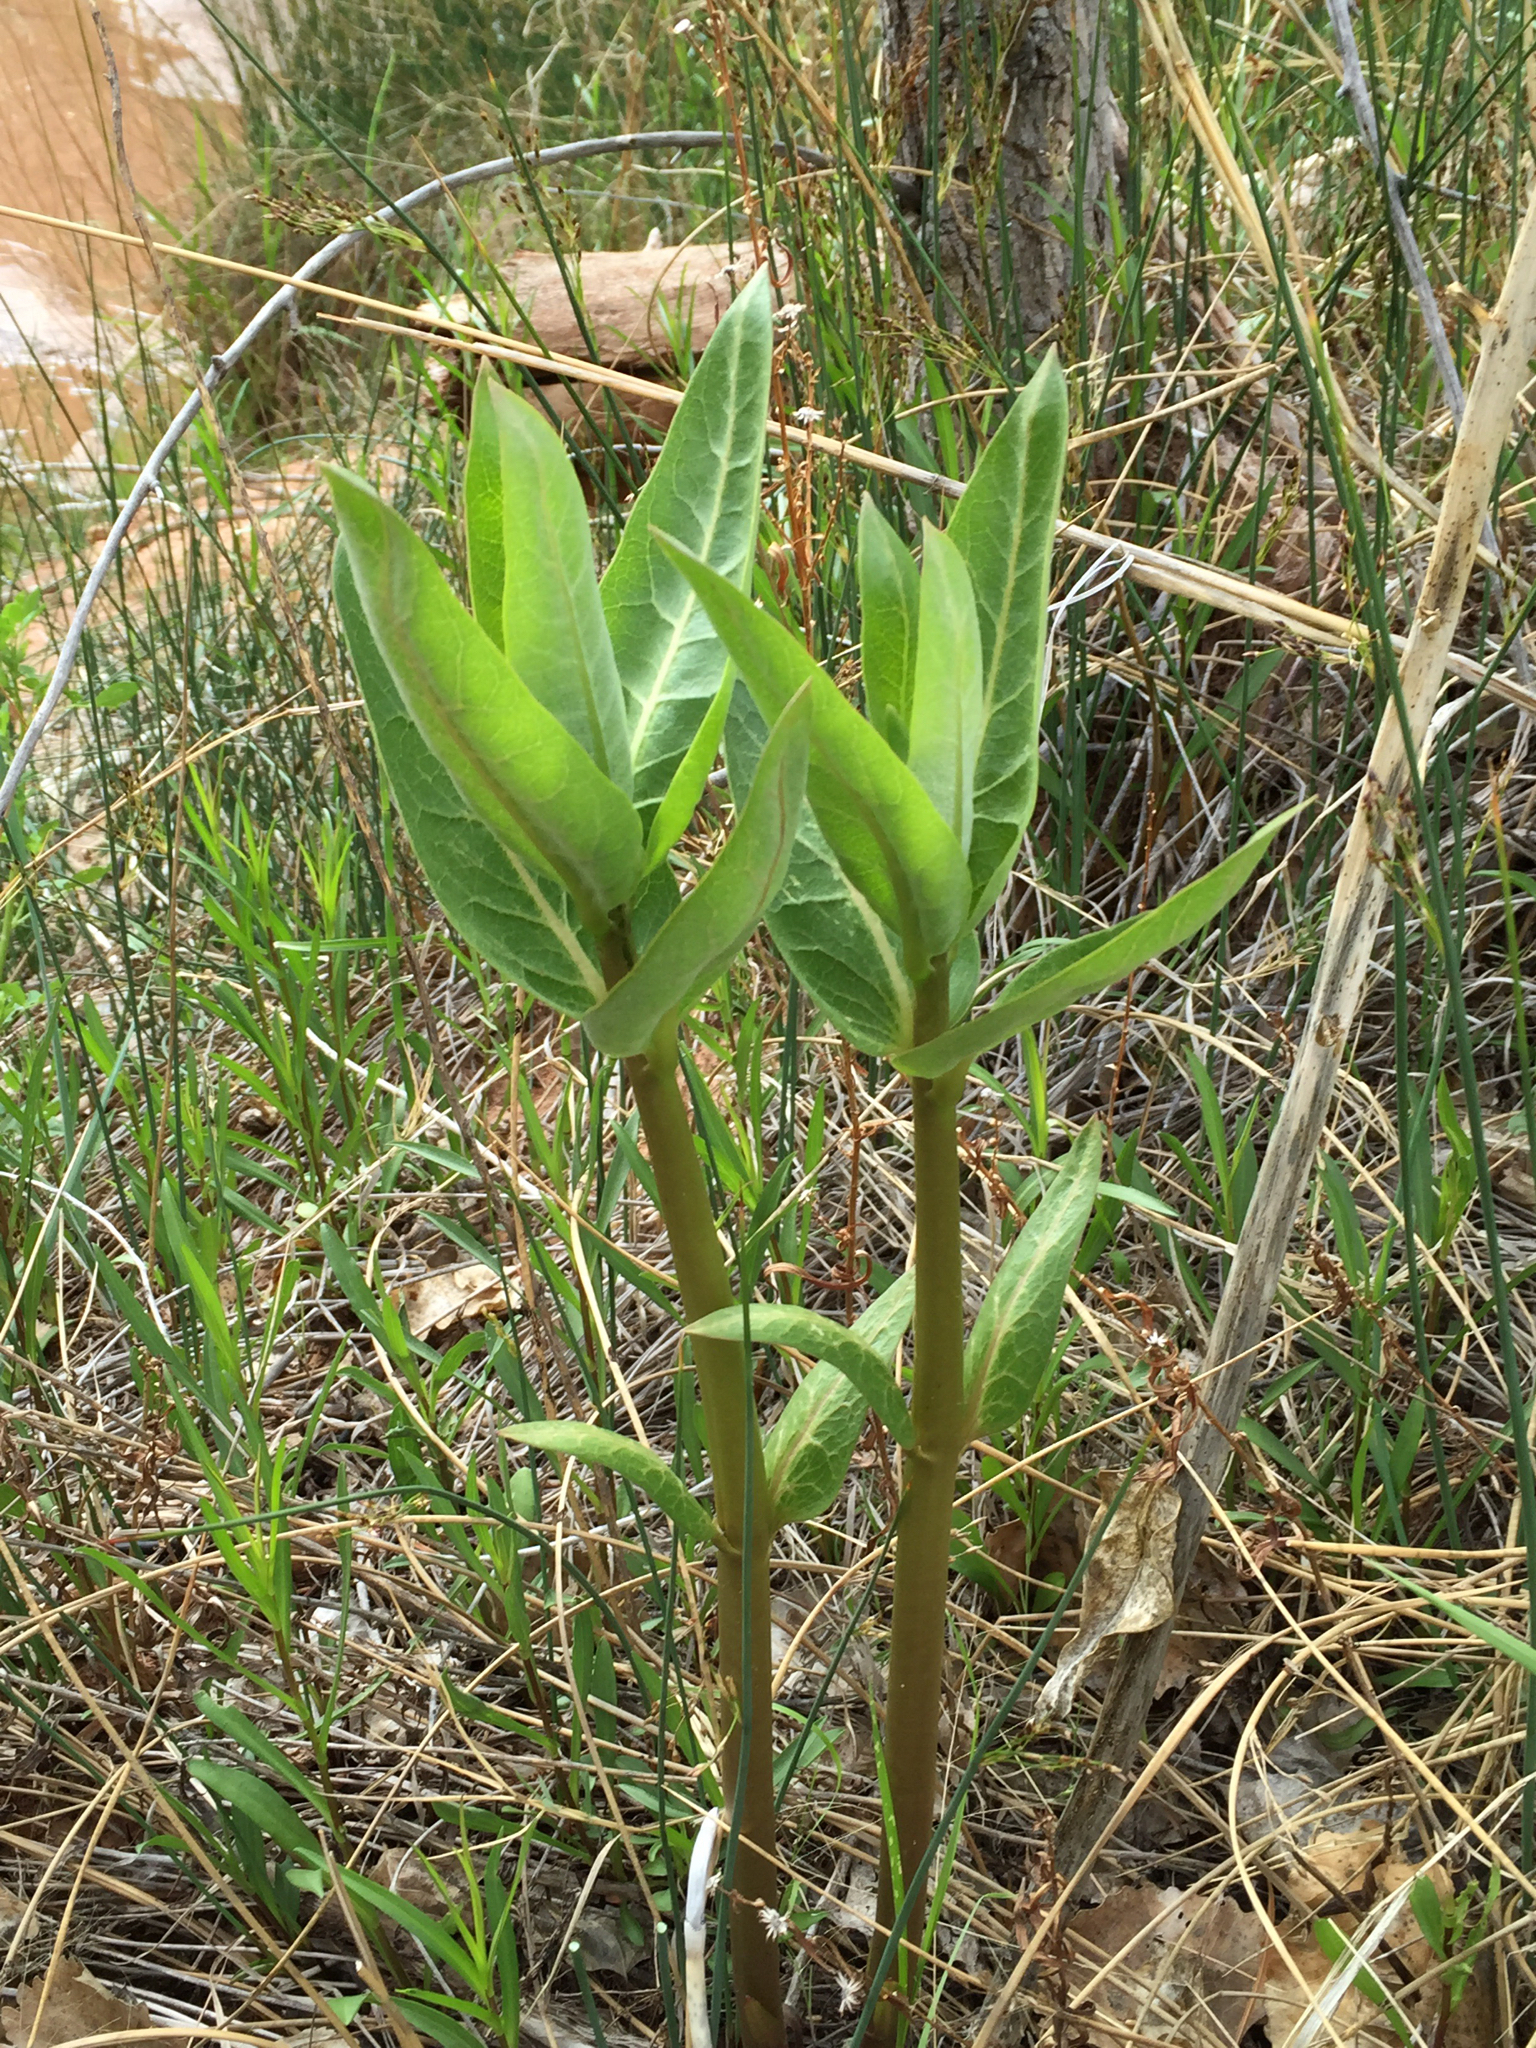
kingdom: Plantae
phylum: Tracheophyta
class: Magnoliopsida
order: Gentianales
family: Apocynaceae
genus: Asclepias
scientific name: Asclepias speciosa
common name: Showy milkweed
